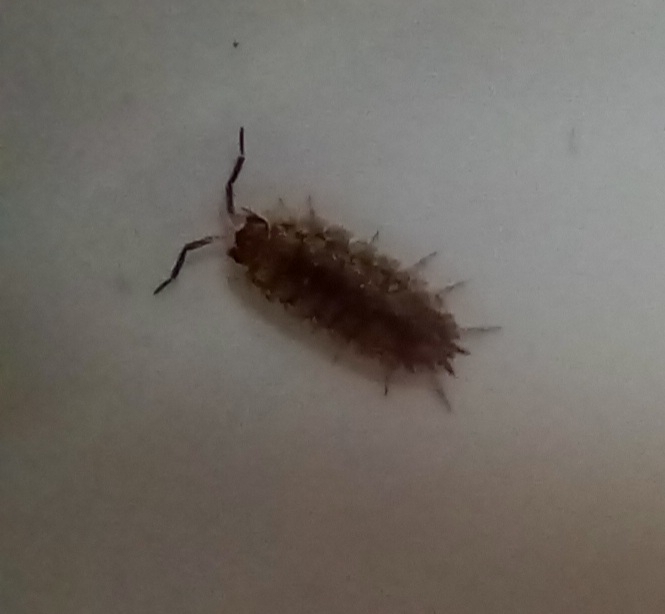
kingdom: Animalia
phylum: Arthropoda
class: Malacostraca
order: Isopoda
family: Porcellionidae
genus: Porcellio
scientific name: Porcellio scaber
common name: Common rough woodlouse
